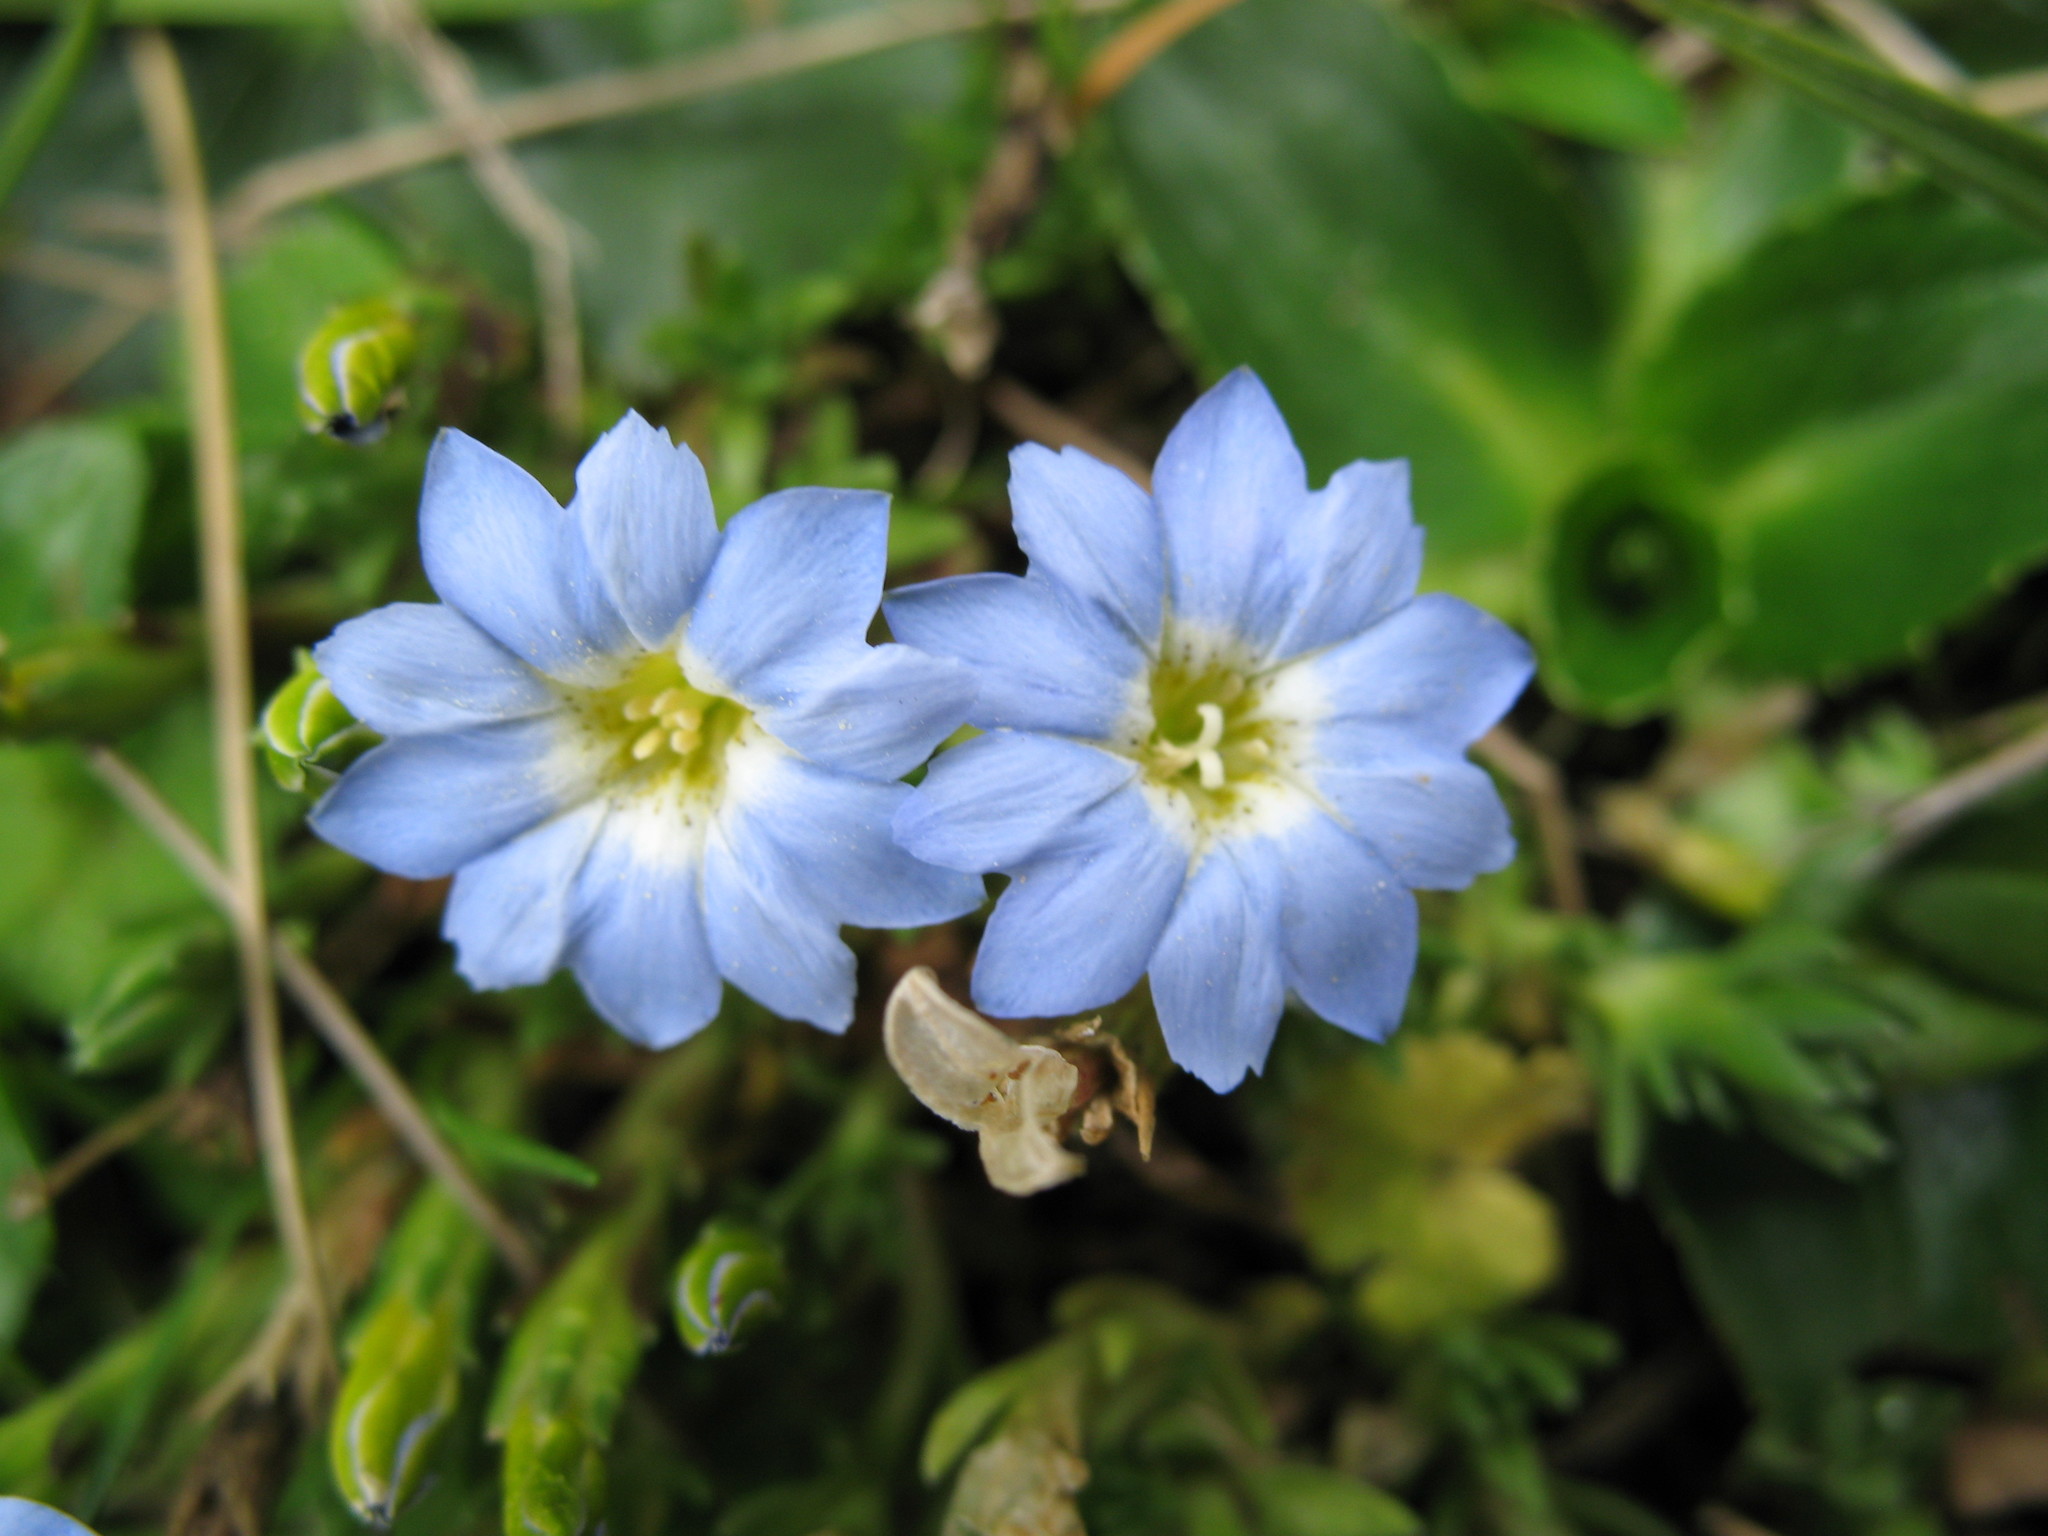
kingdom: Plantae
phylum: Tracheophyta
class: Magnoliopsida
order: Gentianales
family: Gentianaceae
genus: Gentiana
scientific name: Gentiana sedifolia
